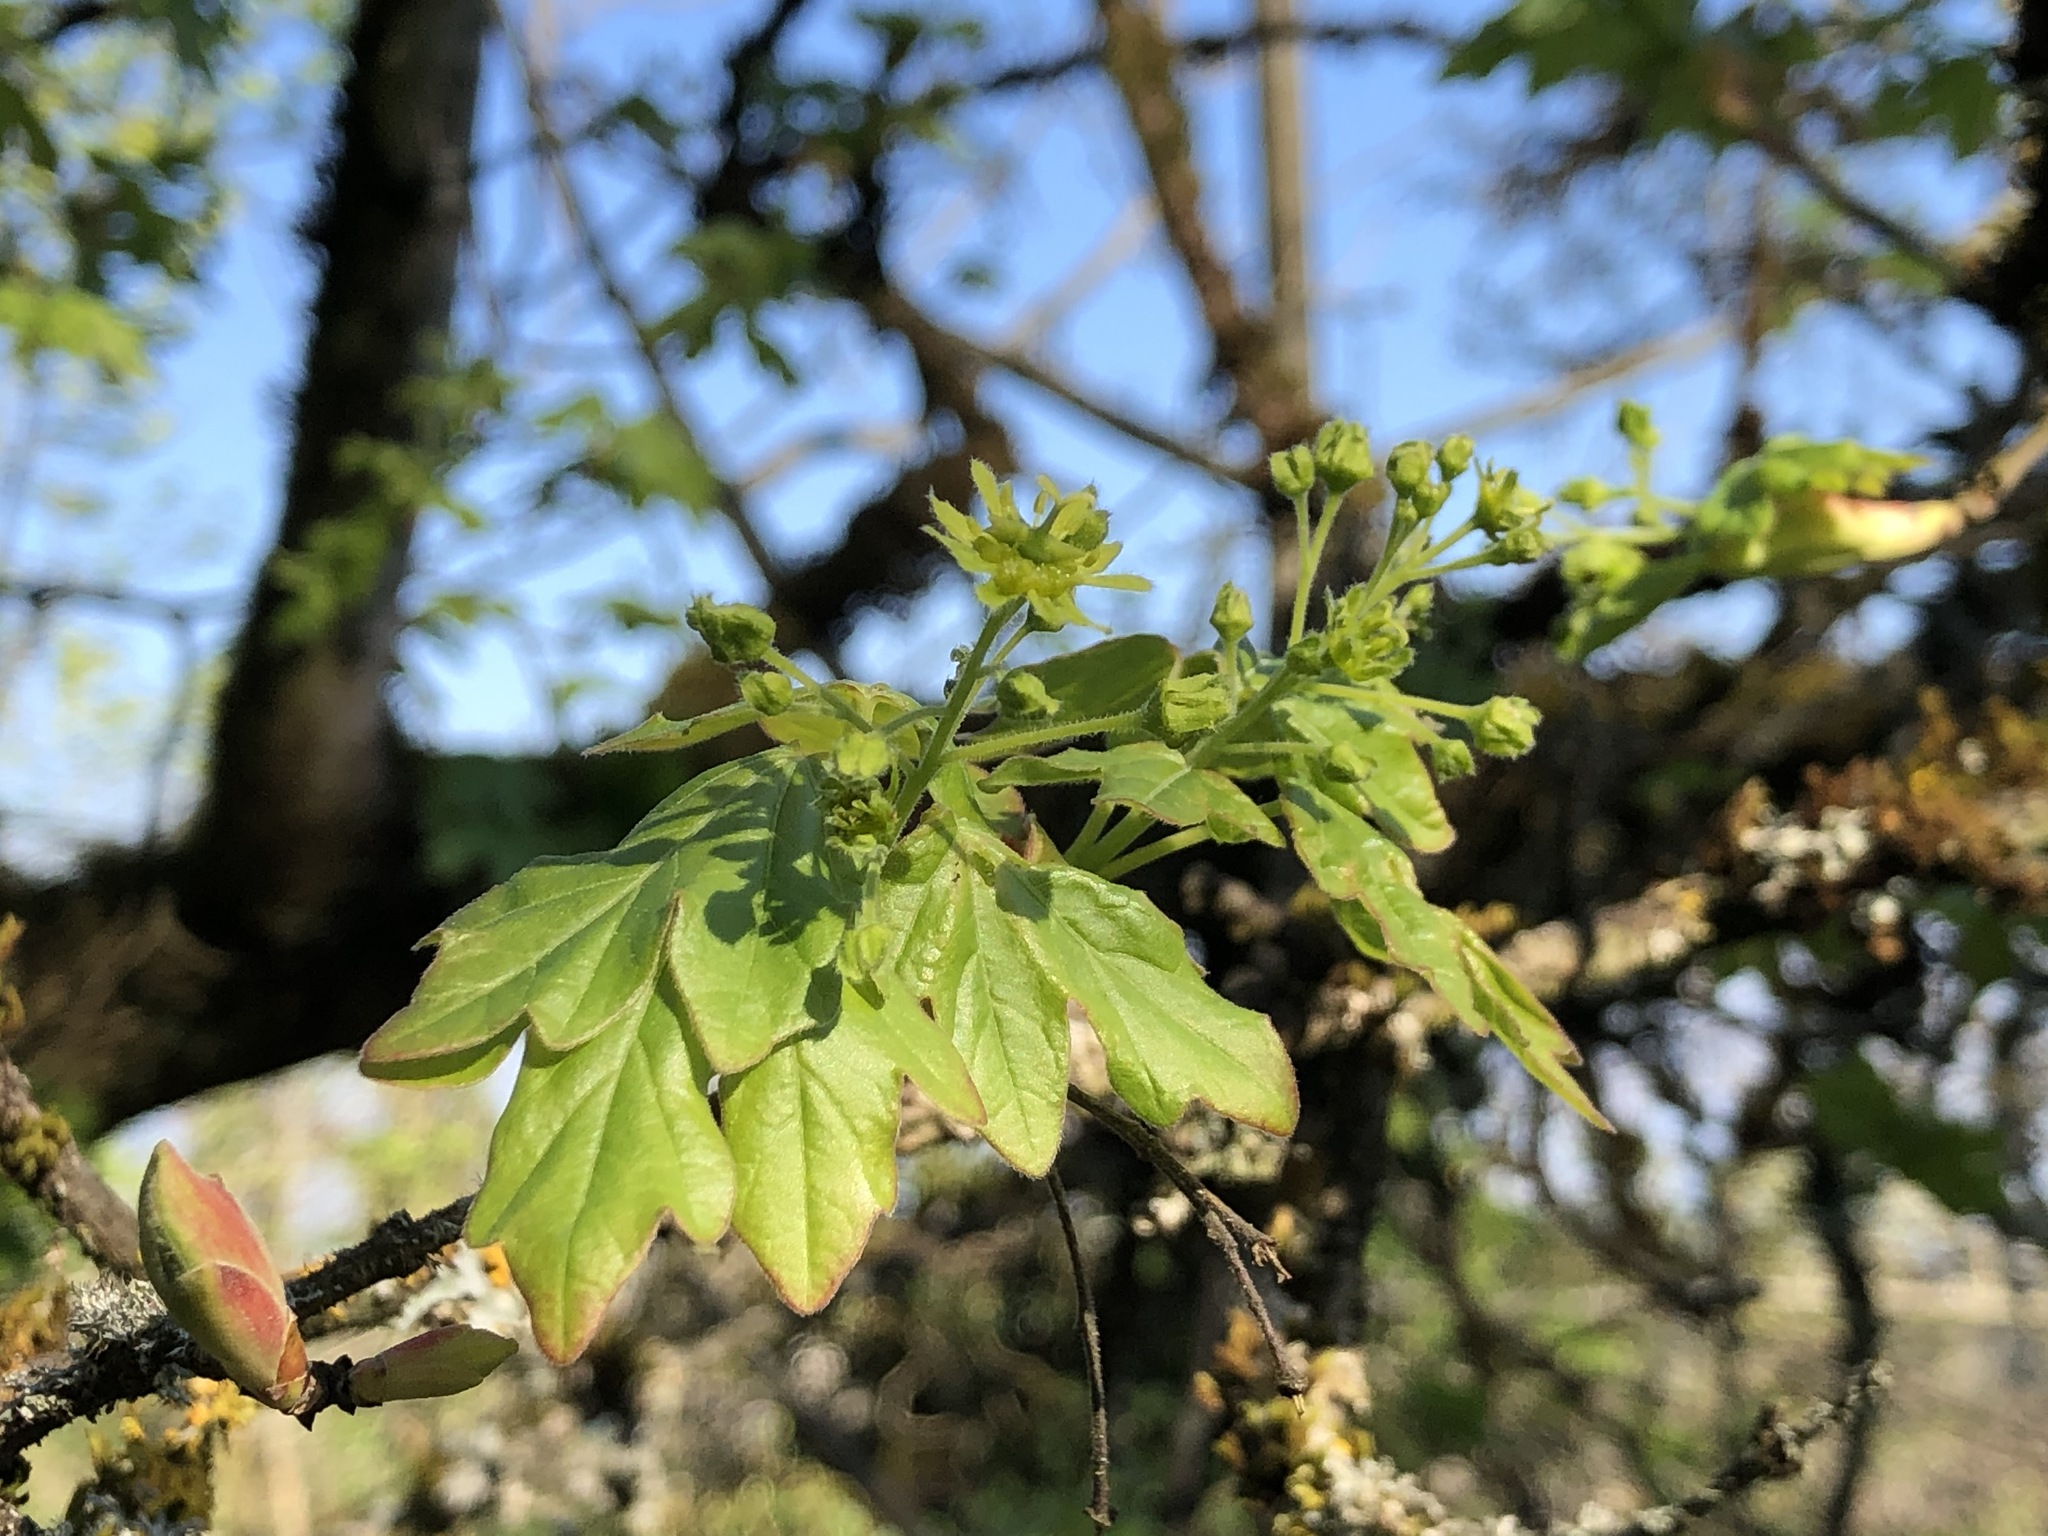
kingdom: Plantae
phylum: Tracheophyta
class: Magnoliopsida
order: Sapindales
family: Sapindaceae
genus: Acer
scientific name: Acer campestre
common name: Field maple
